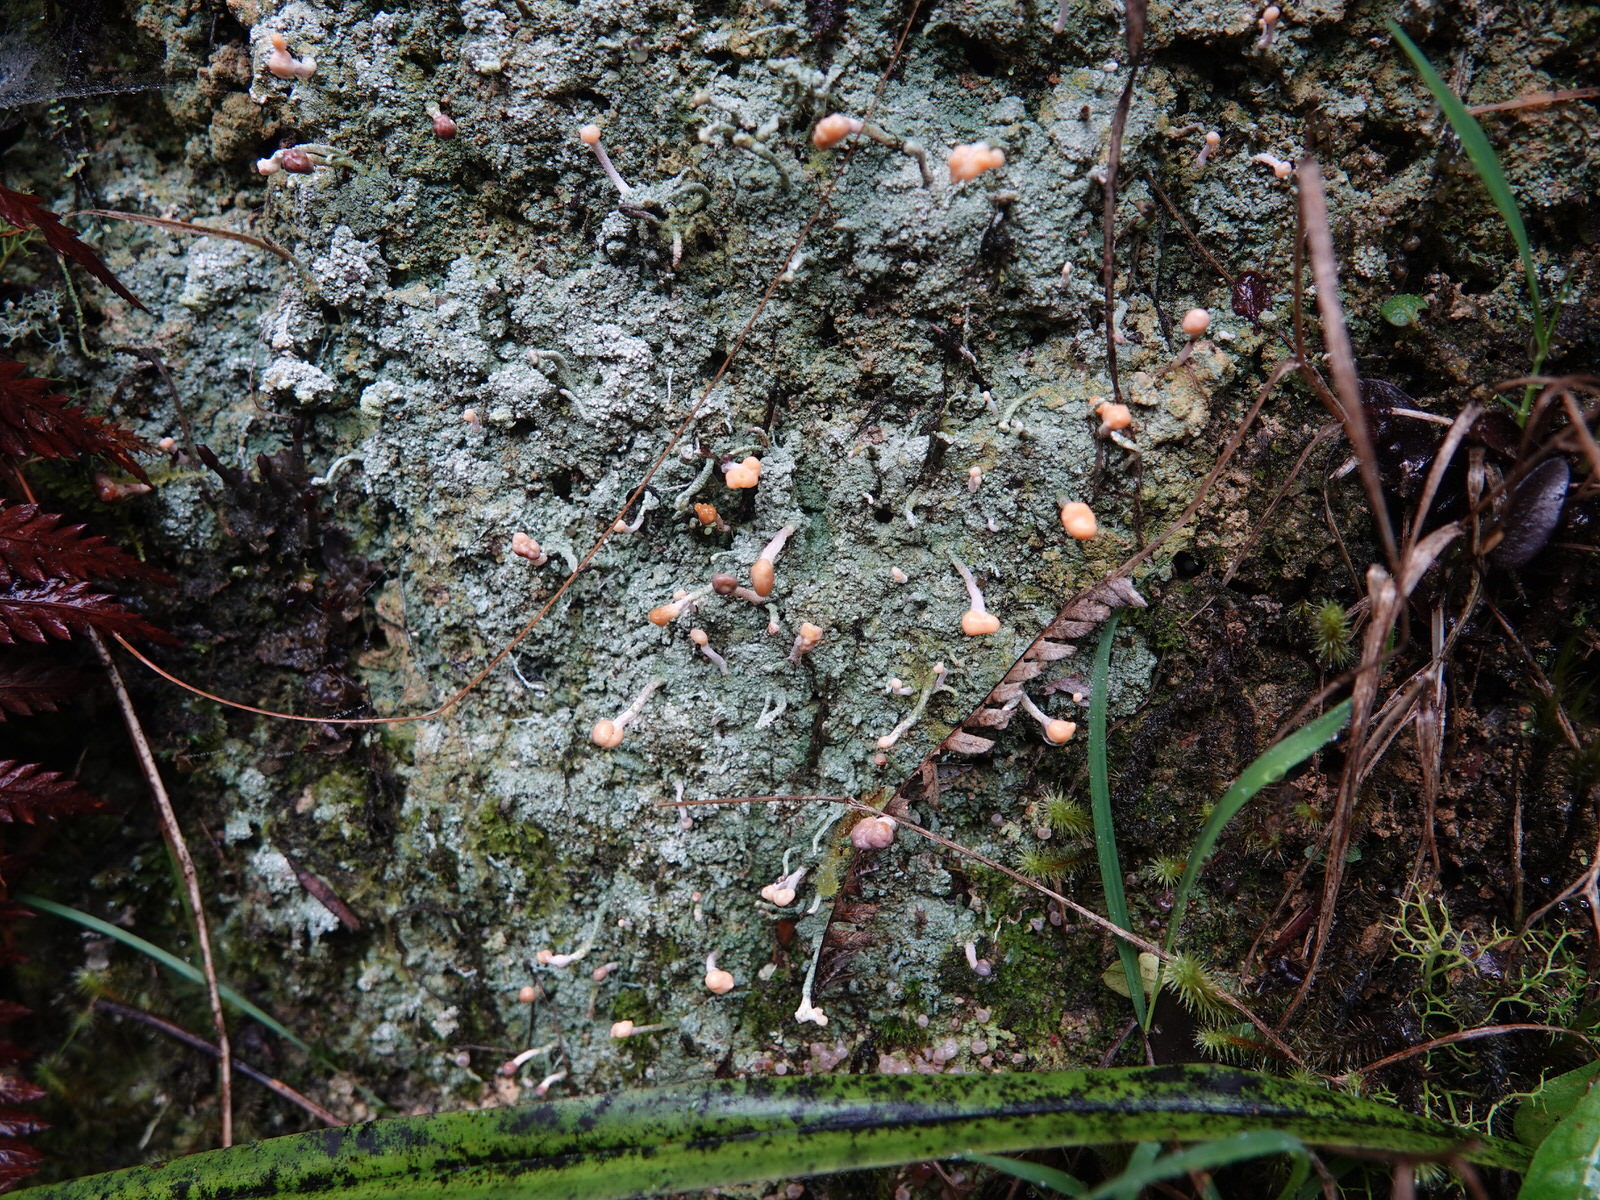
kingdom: Fungi
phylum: Ascomycota
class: Lecanoromycetes
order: Pertusariales
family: Icmadophilaceae
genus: Dibaeis
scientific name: Dibaeis arcuata
